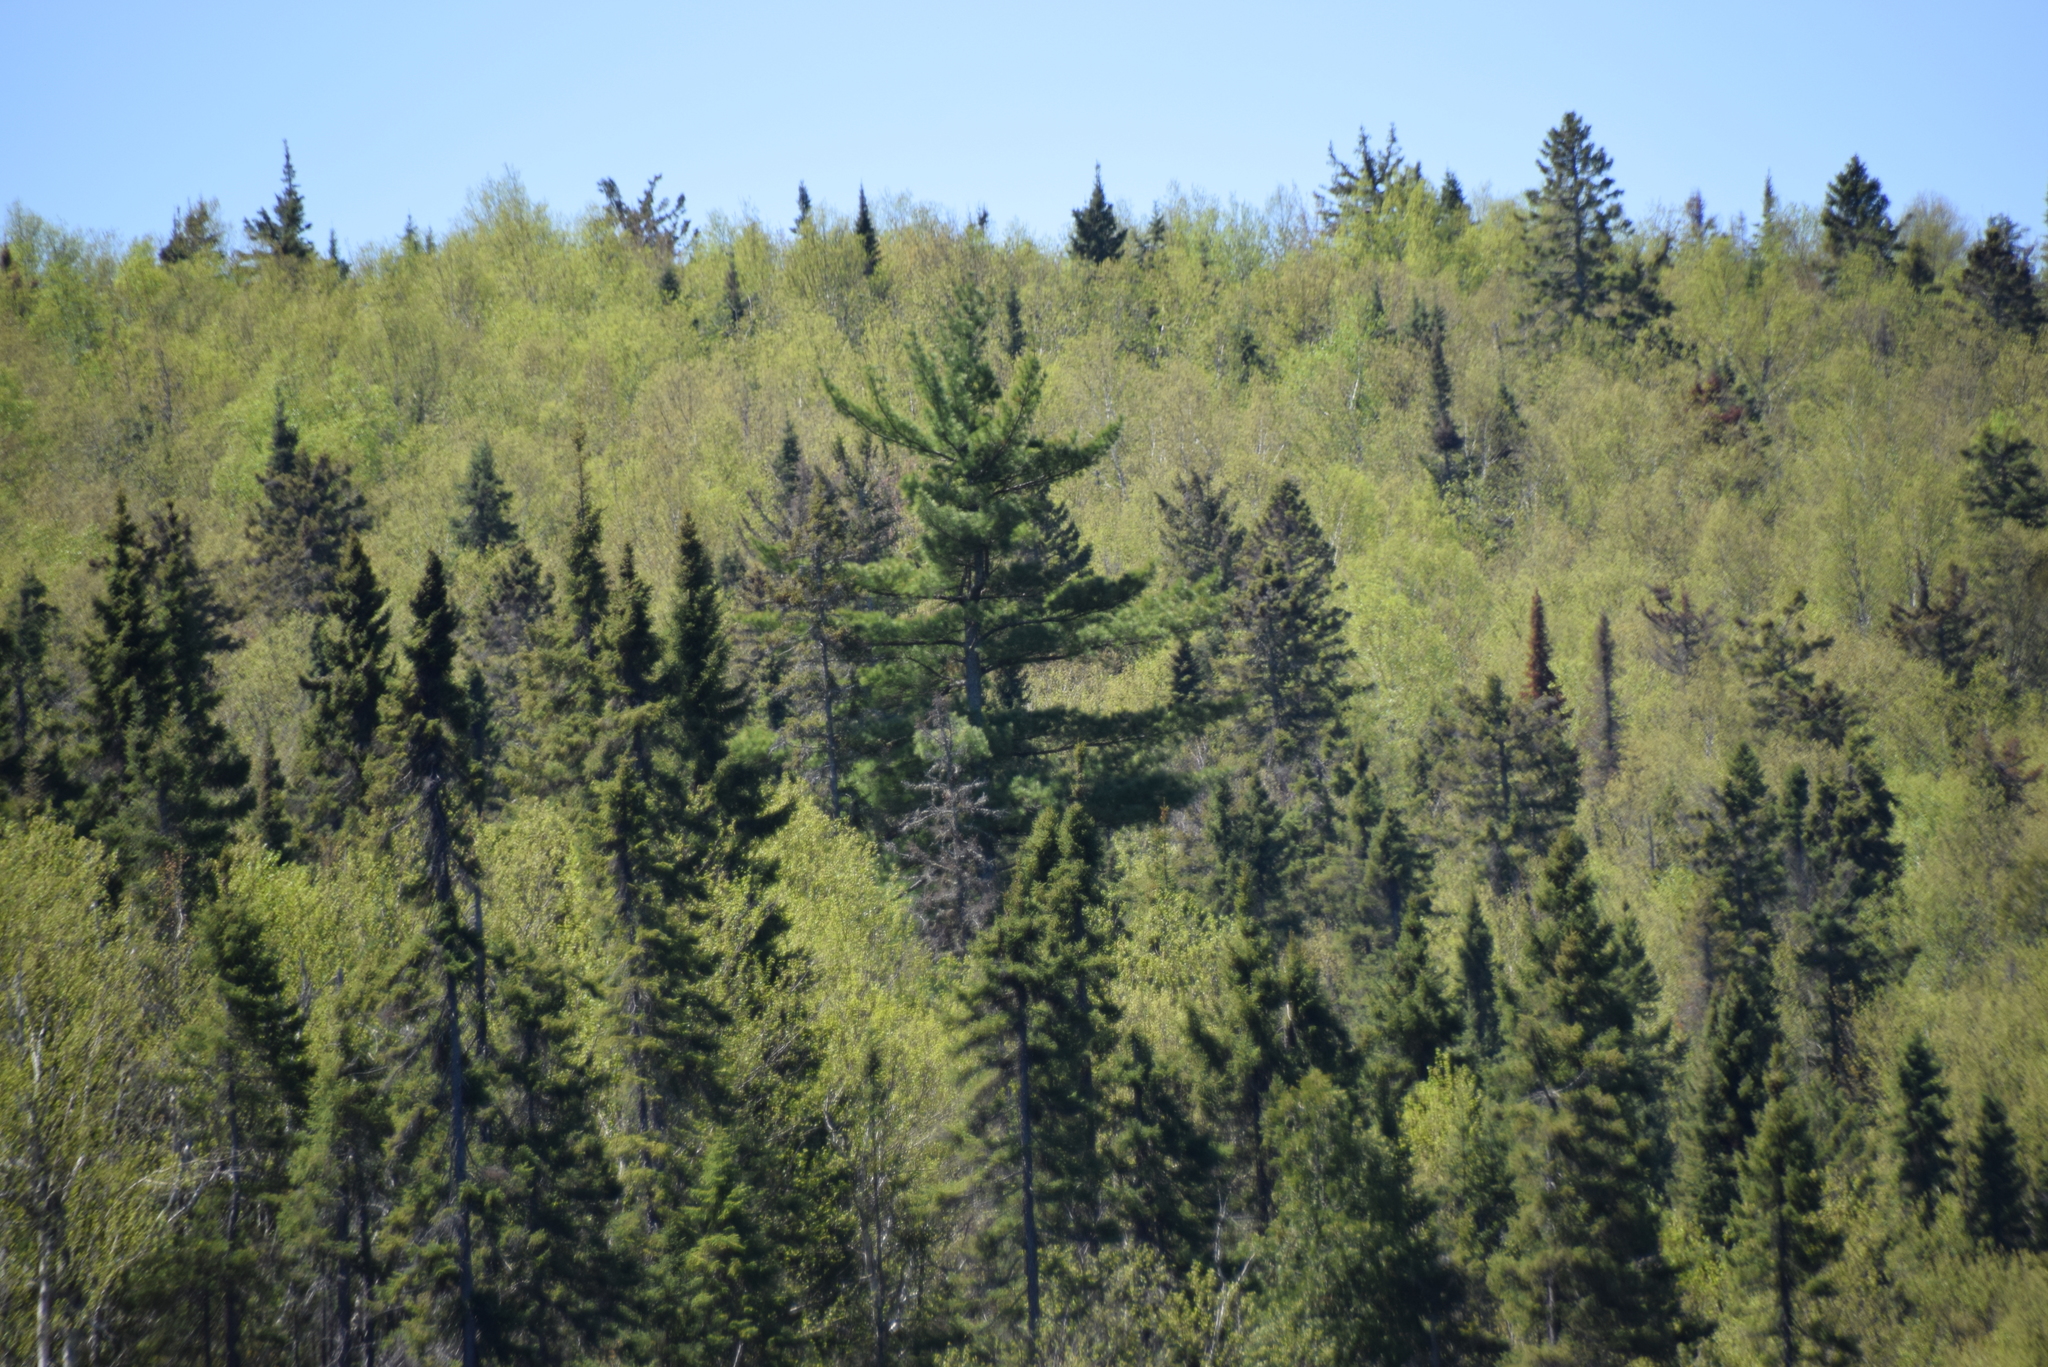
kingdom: Plantae
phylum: Tracheophyta
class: Pinopsida
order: Pinales
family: Pinaceae
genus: Pinus
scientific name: Pinus strobus
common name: Weymouth pine
